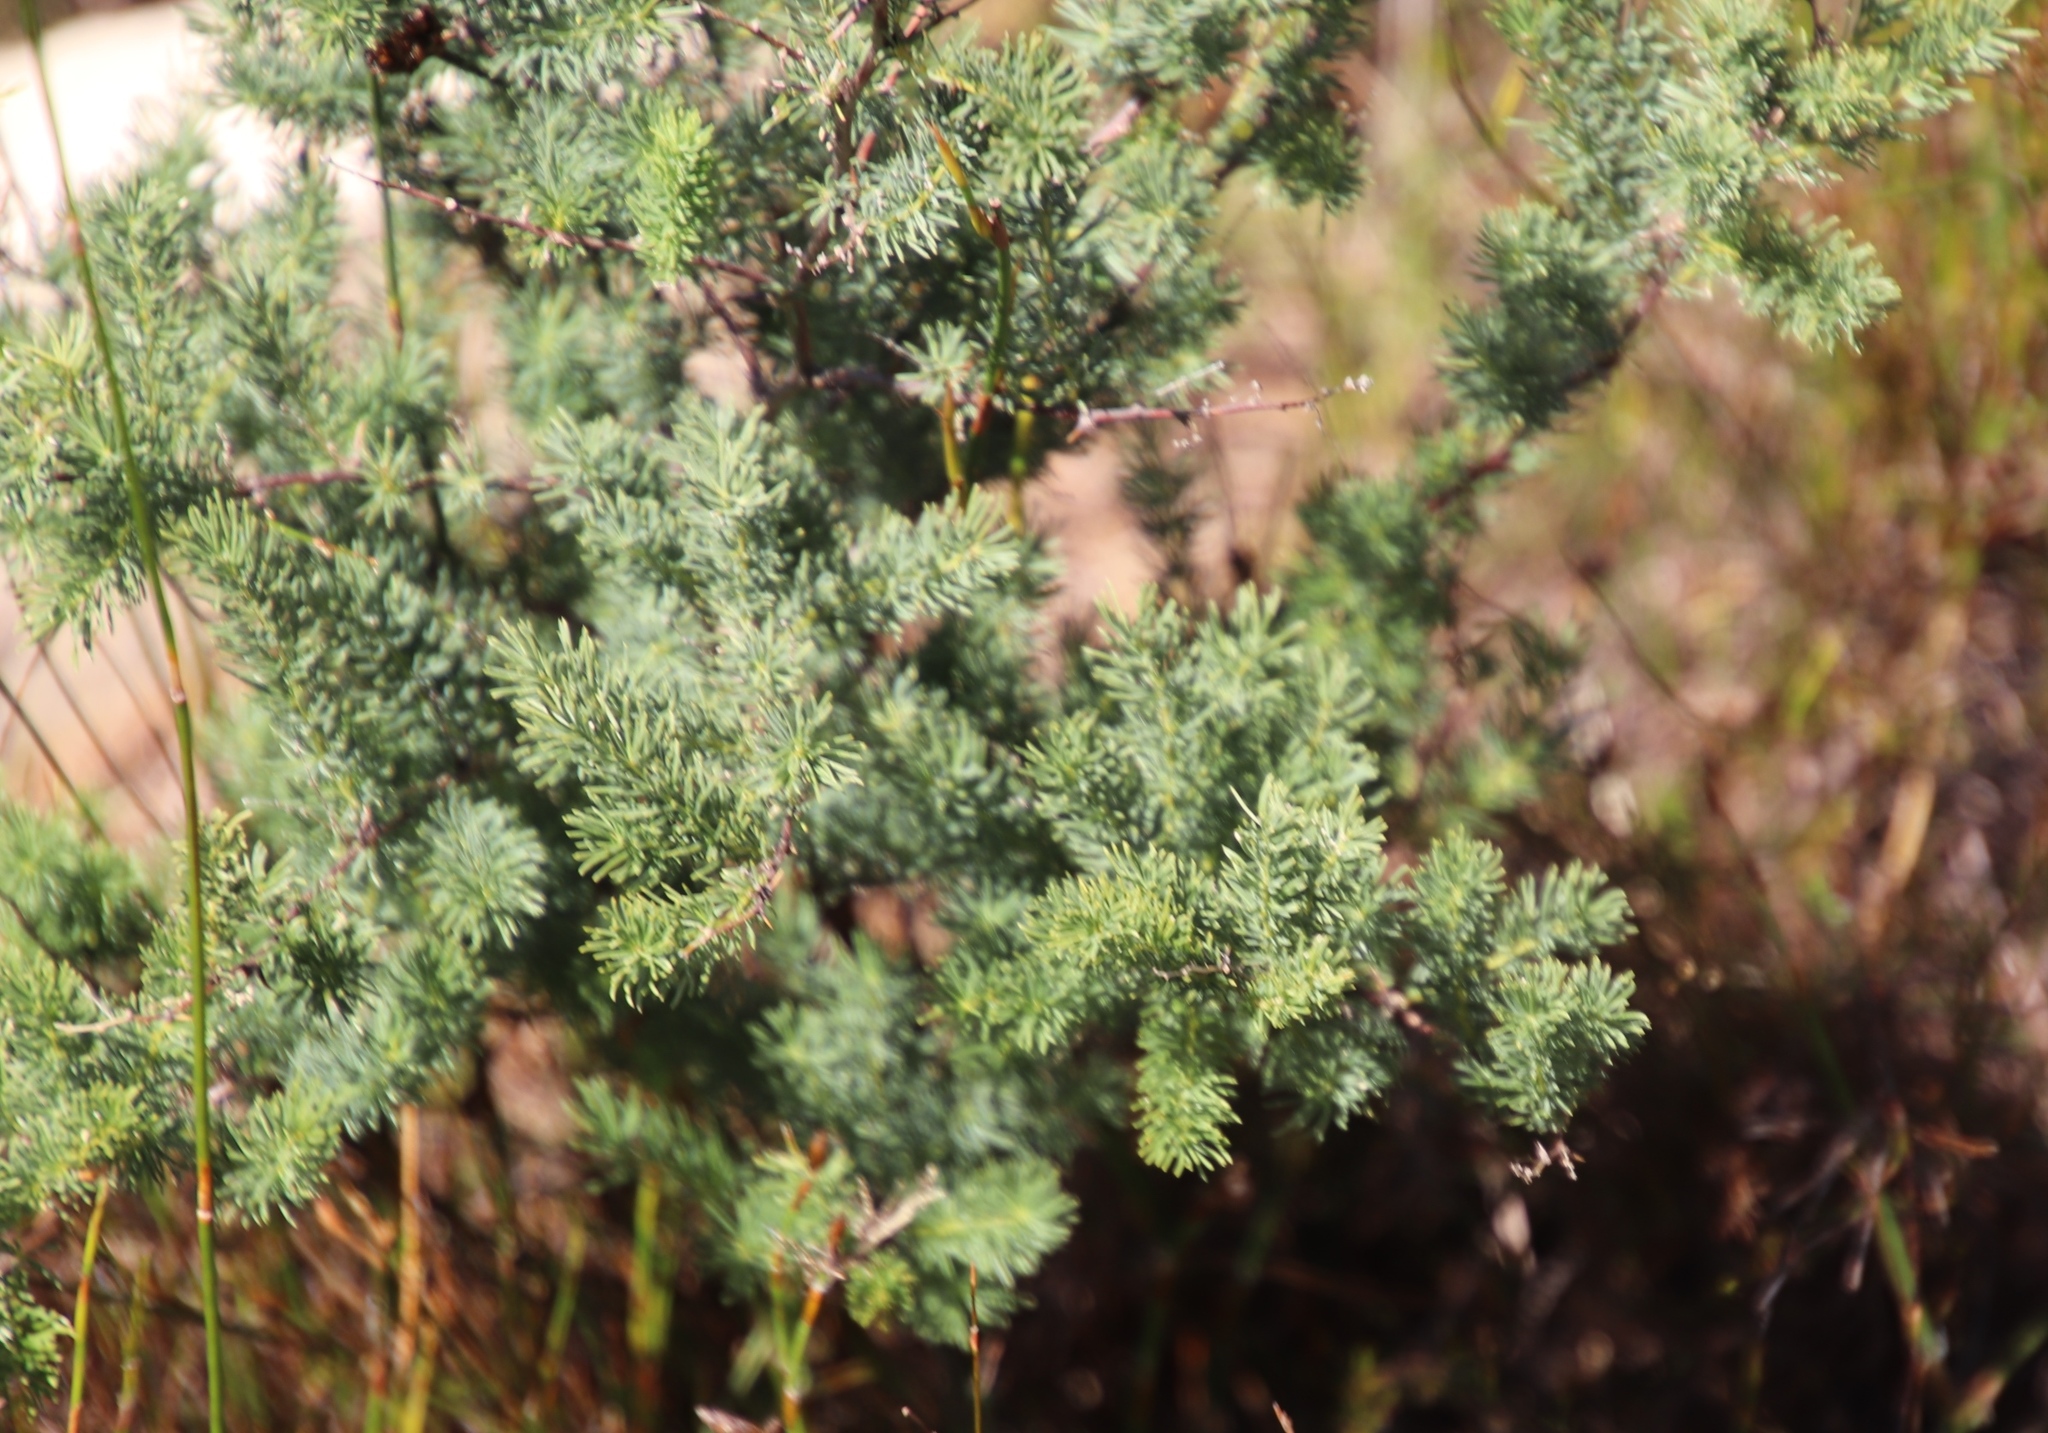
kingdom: Plantae
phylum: Tracheophyta
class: Liliopsida
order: Asparagales
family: Asparagaceae
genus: Asparagus
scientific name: Asparagus rubicundus
